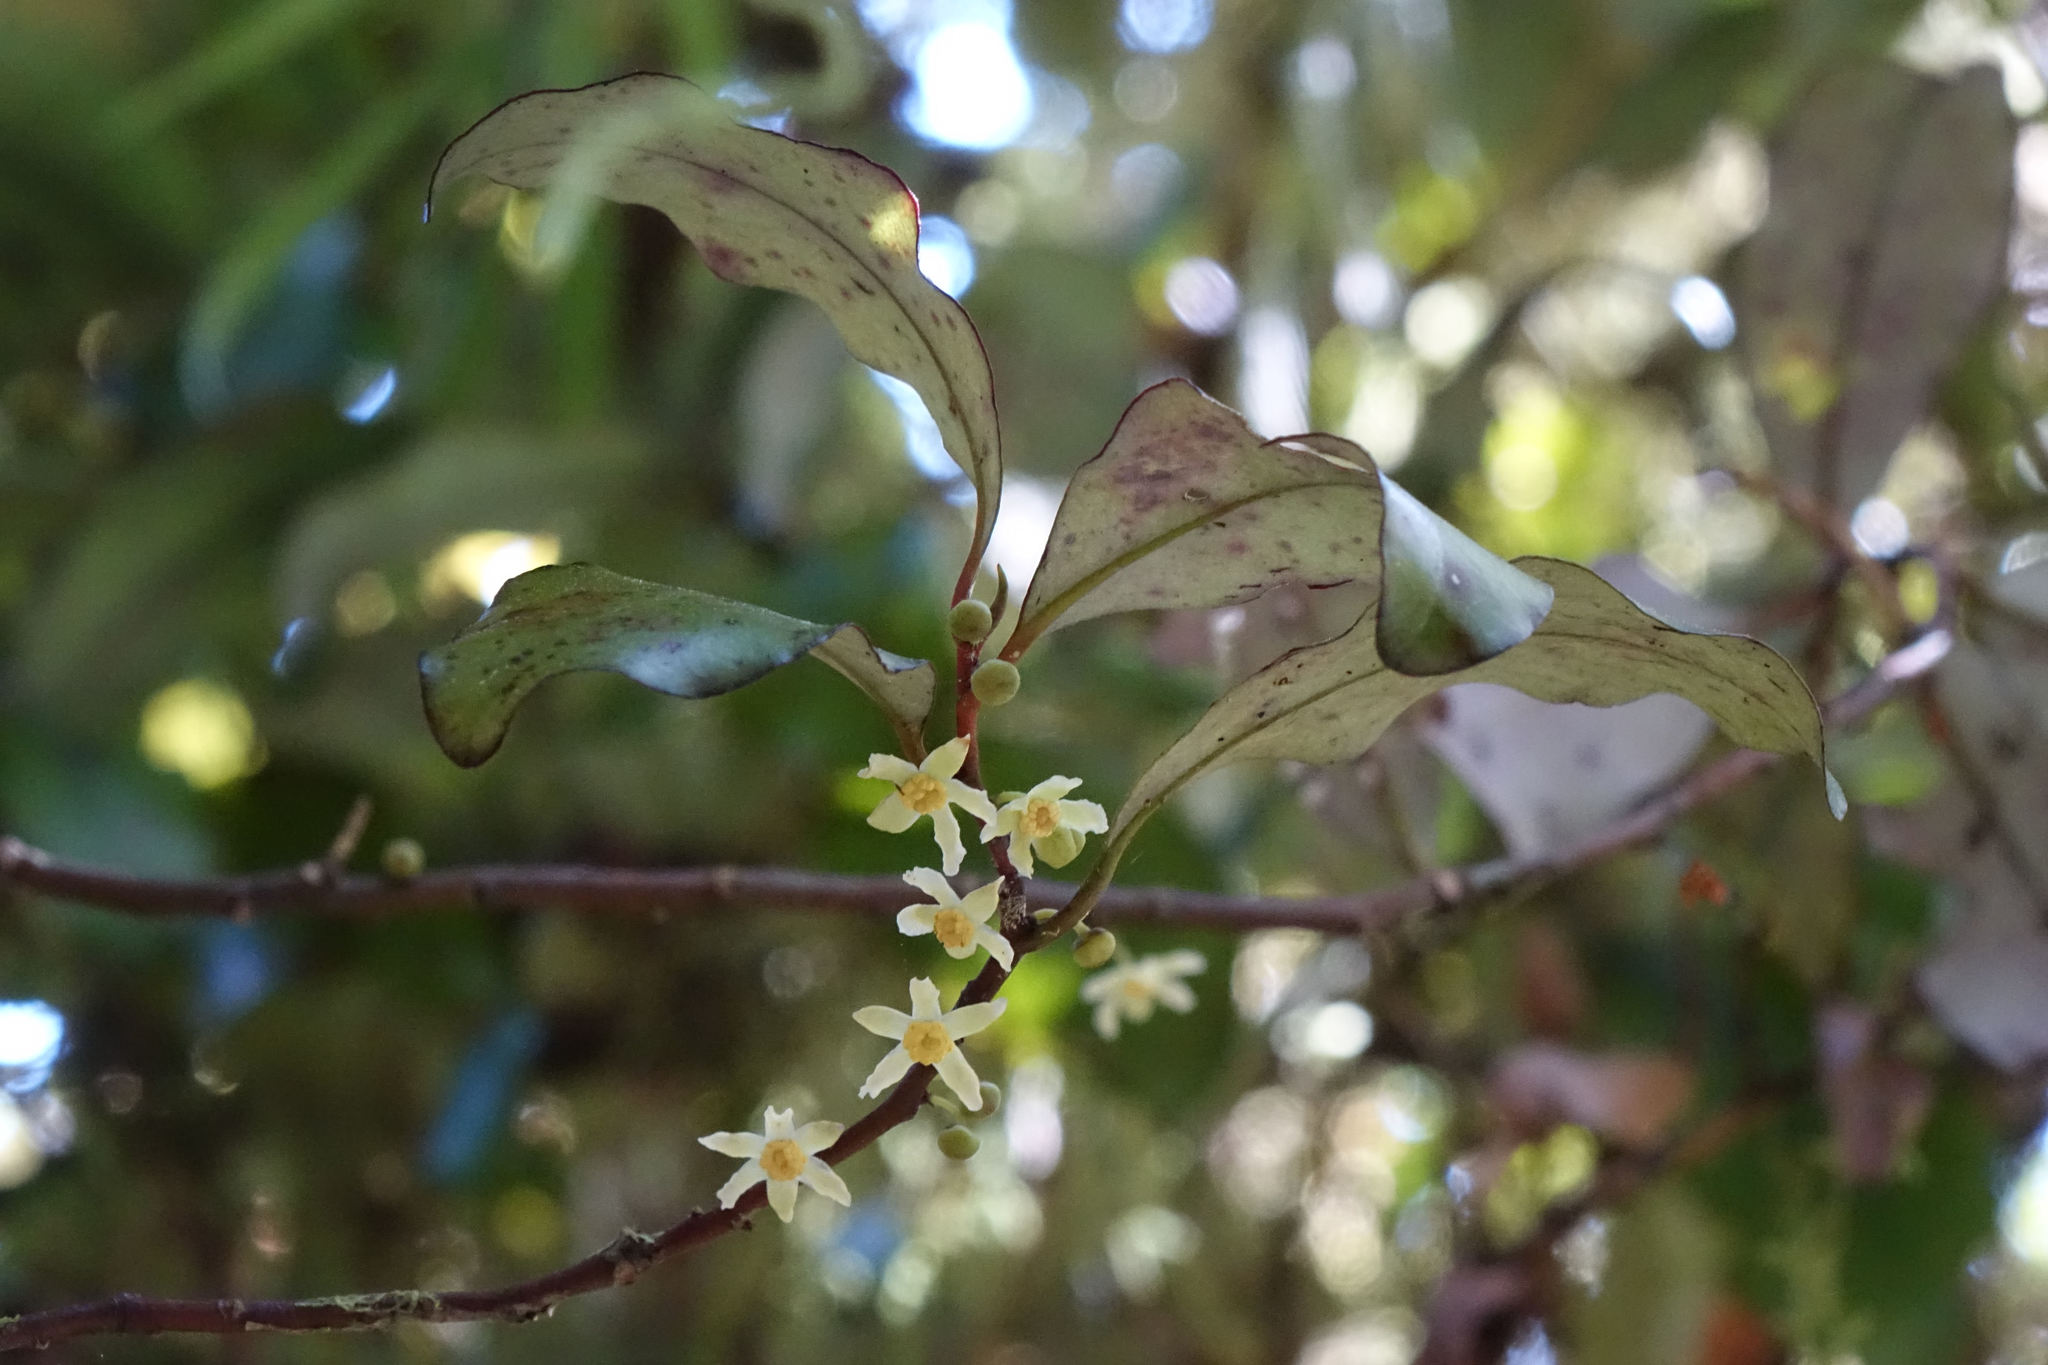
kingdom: Plantae
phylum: Tracheophyta
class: Magnoliopsida
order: Canellales
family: Winteraceae
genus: Pseudowintera
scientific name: Pseudowintera colorata
